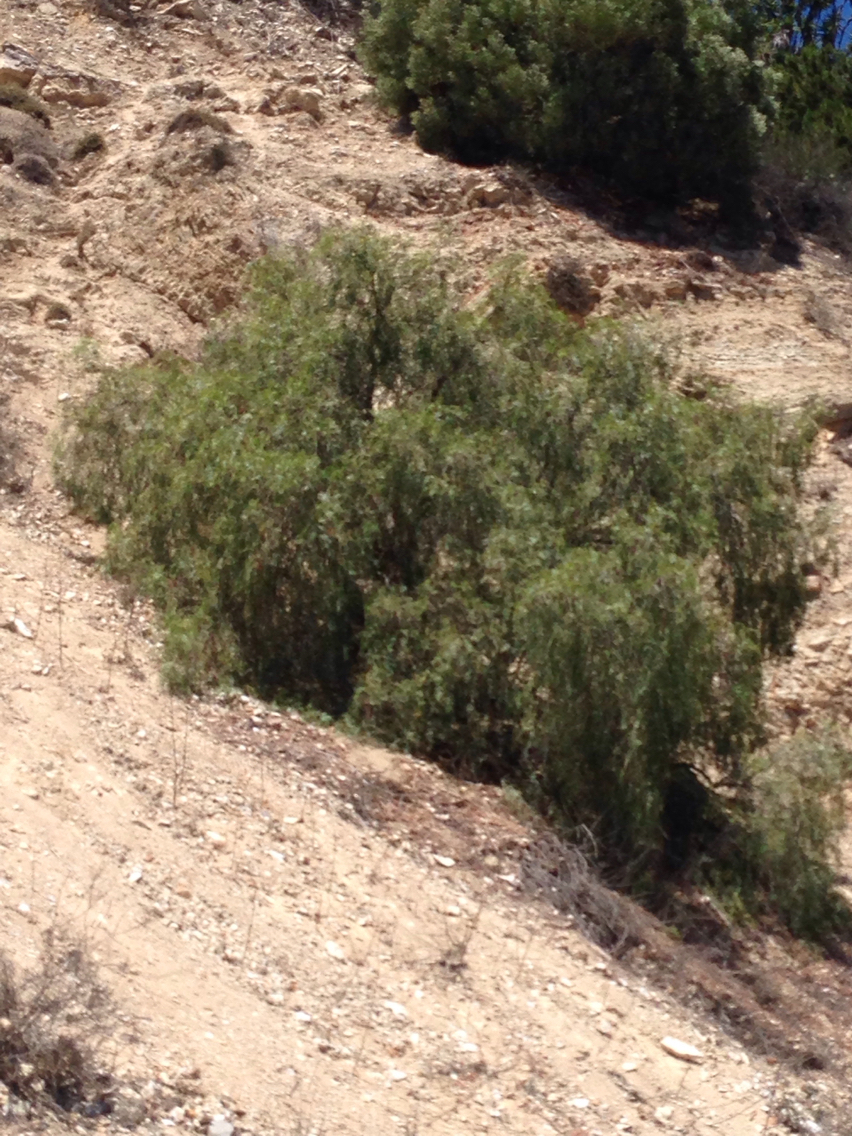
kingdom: Plantae
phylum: Tracheophyta
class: Magnoliopsida
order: Sapindales
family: Anacardiaceae
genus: Schinus
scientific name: Schinus molle
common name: Peruvian peppertree
